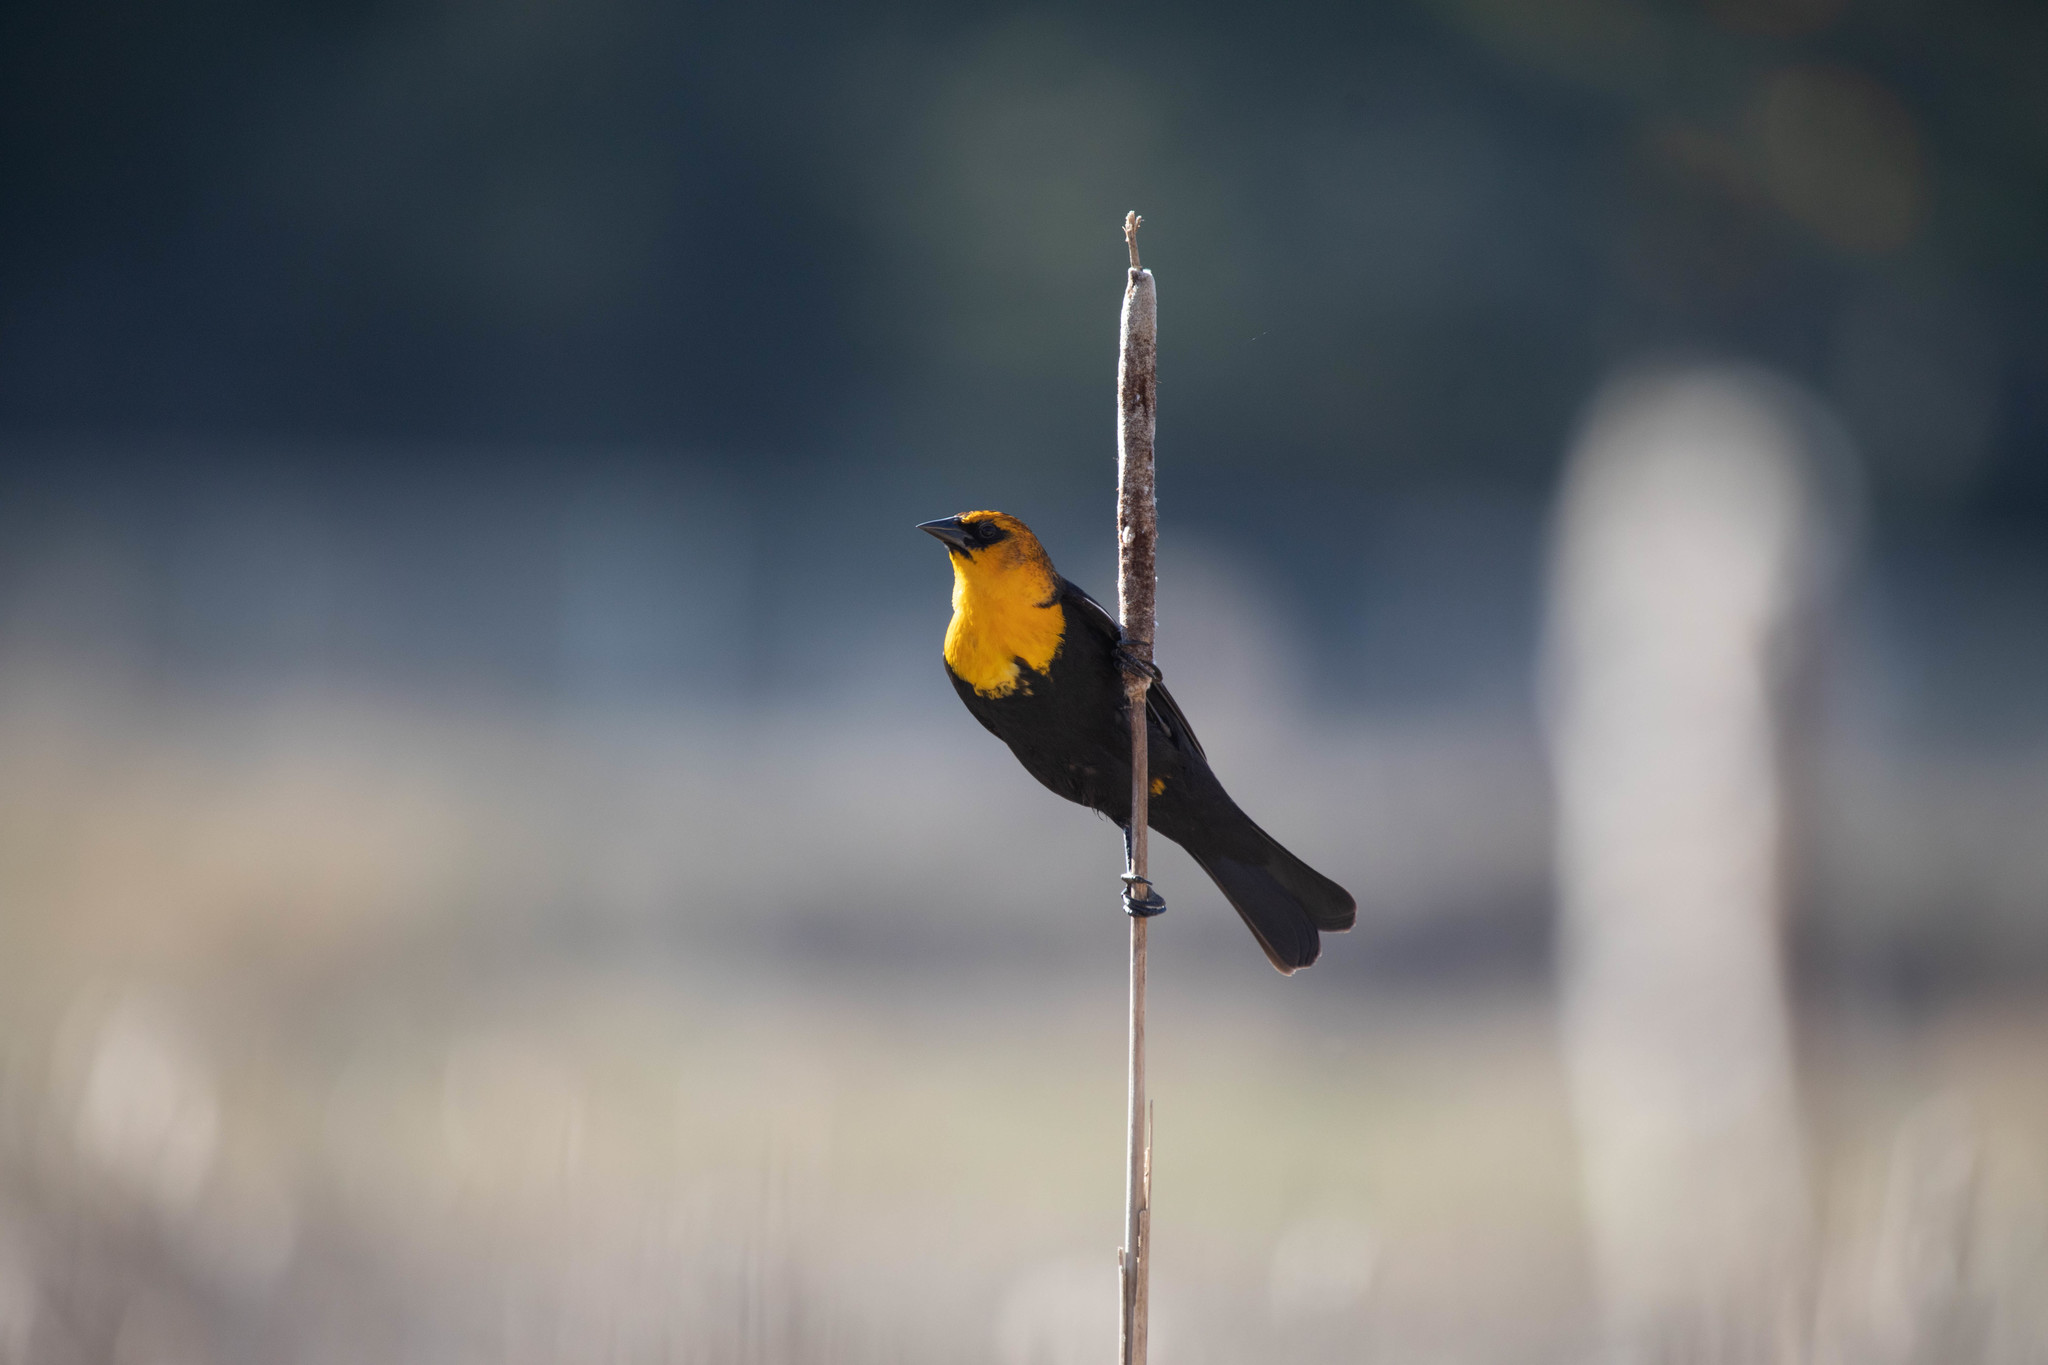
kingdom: Animalia
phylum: Chordata
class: Aves
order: Passeriformes
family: Icteridae
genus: Xanthocephalus
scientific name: Xanthocephalus xanthocephalus
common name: Yellow-headed blackbird
